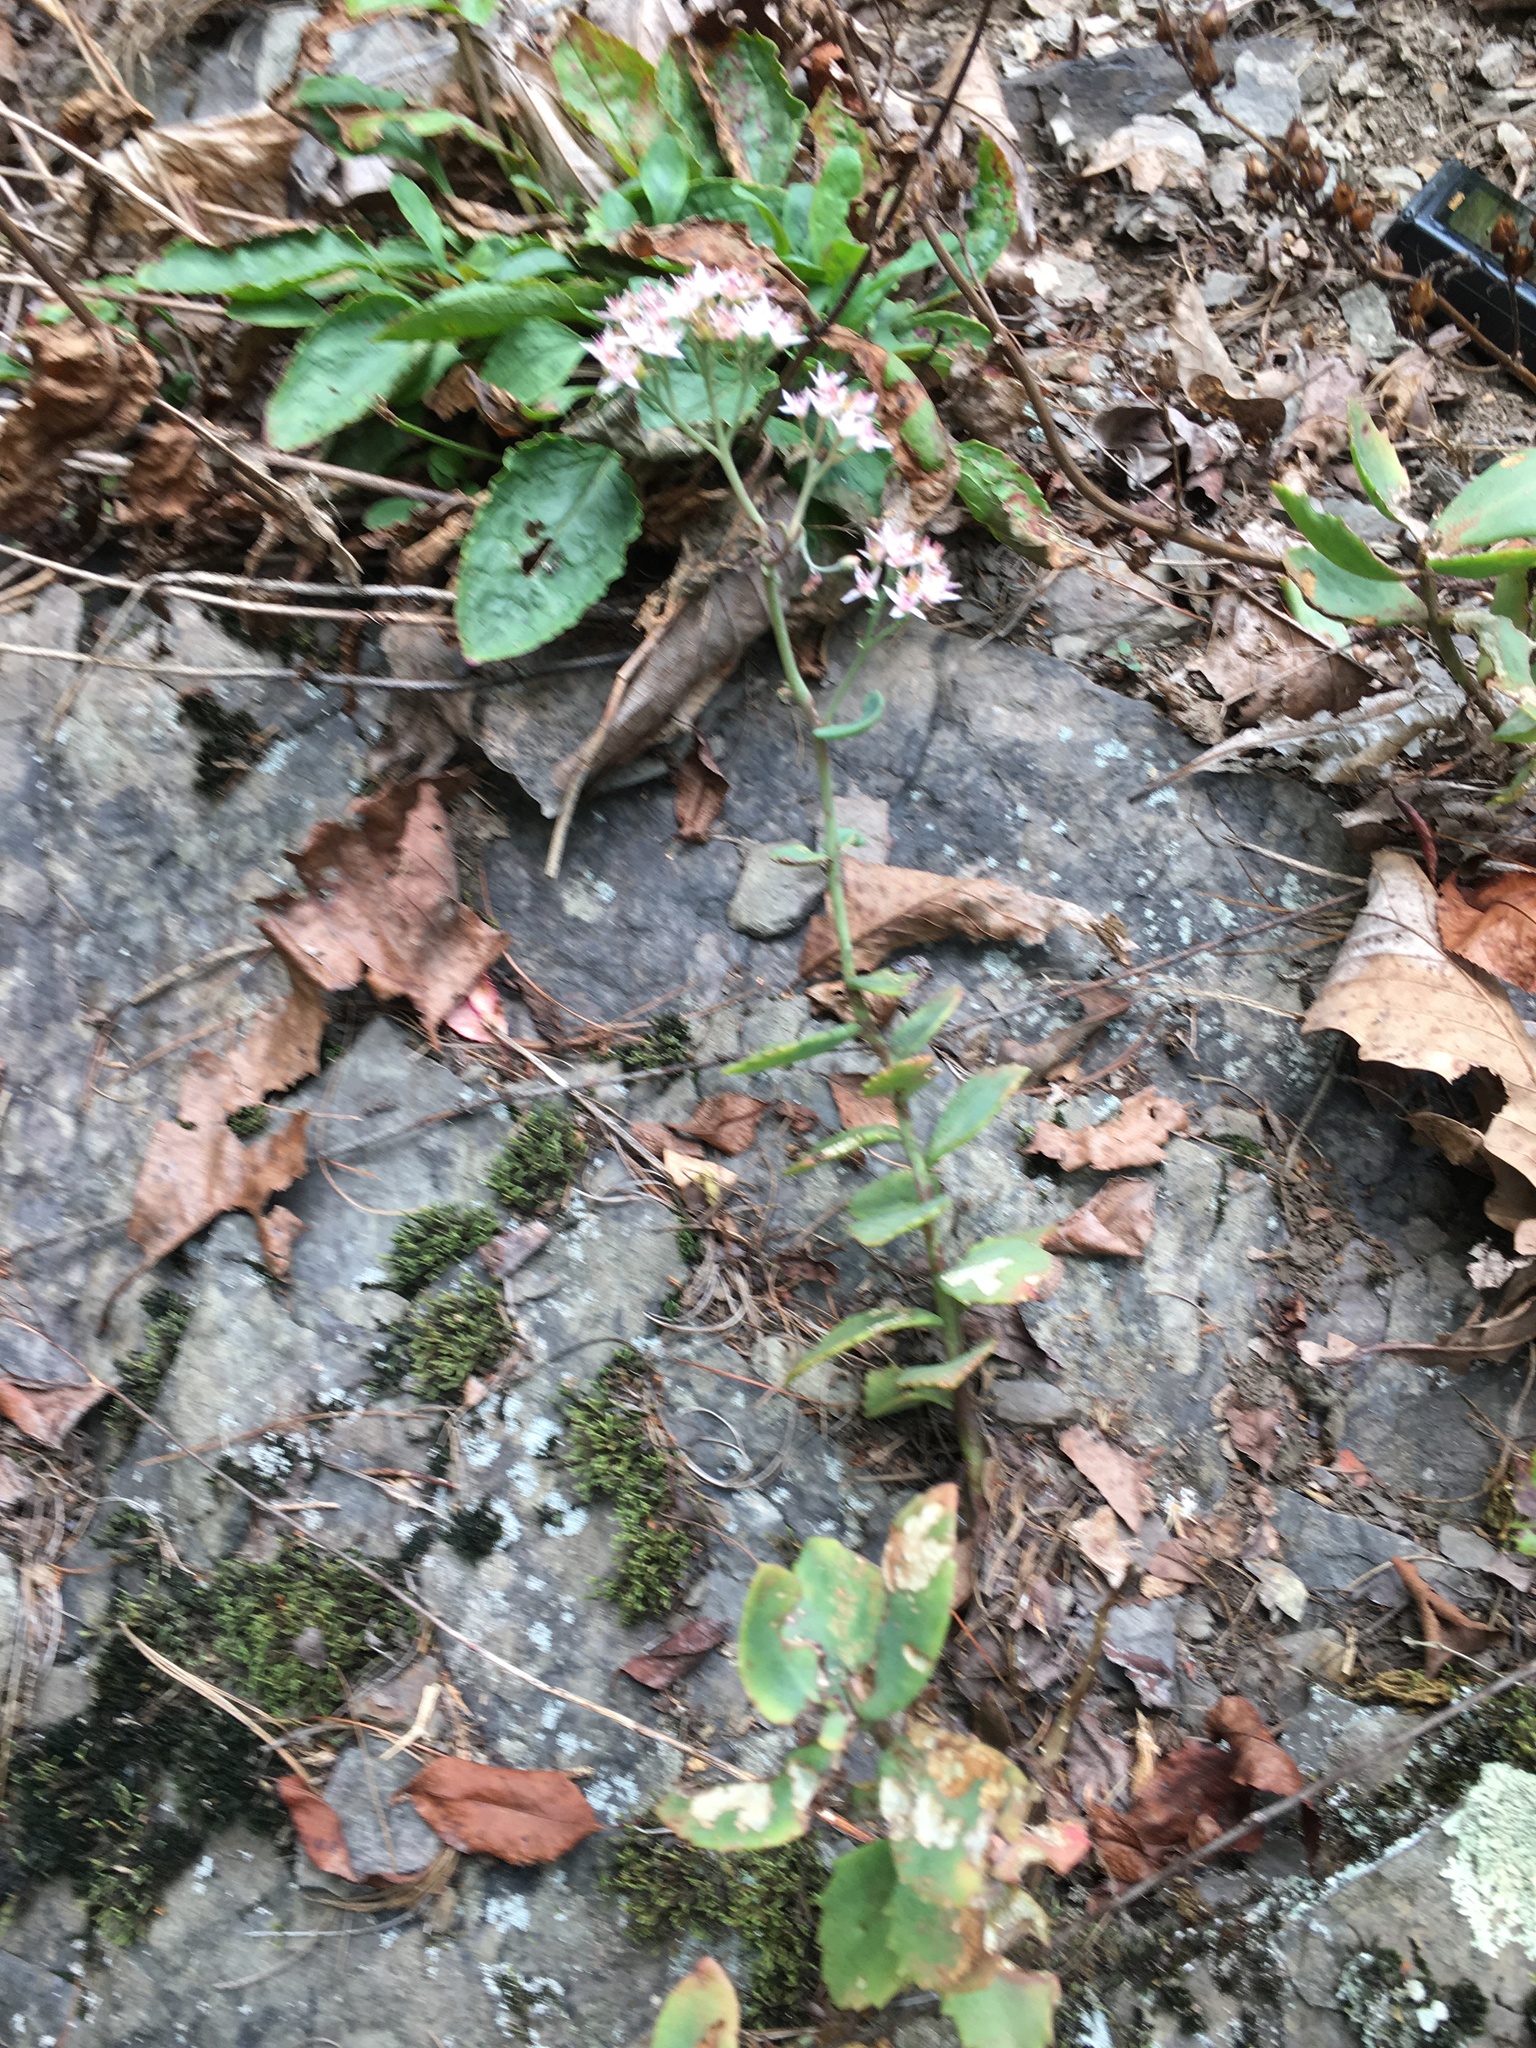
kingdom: Plantae
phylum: Tracheophyta
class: Magnoliopsida
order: Saxifragales
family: Crassulaceae
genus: Hylotelephium
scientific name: Hylotelephium telephioides
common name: Allegheny stonecrop
